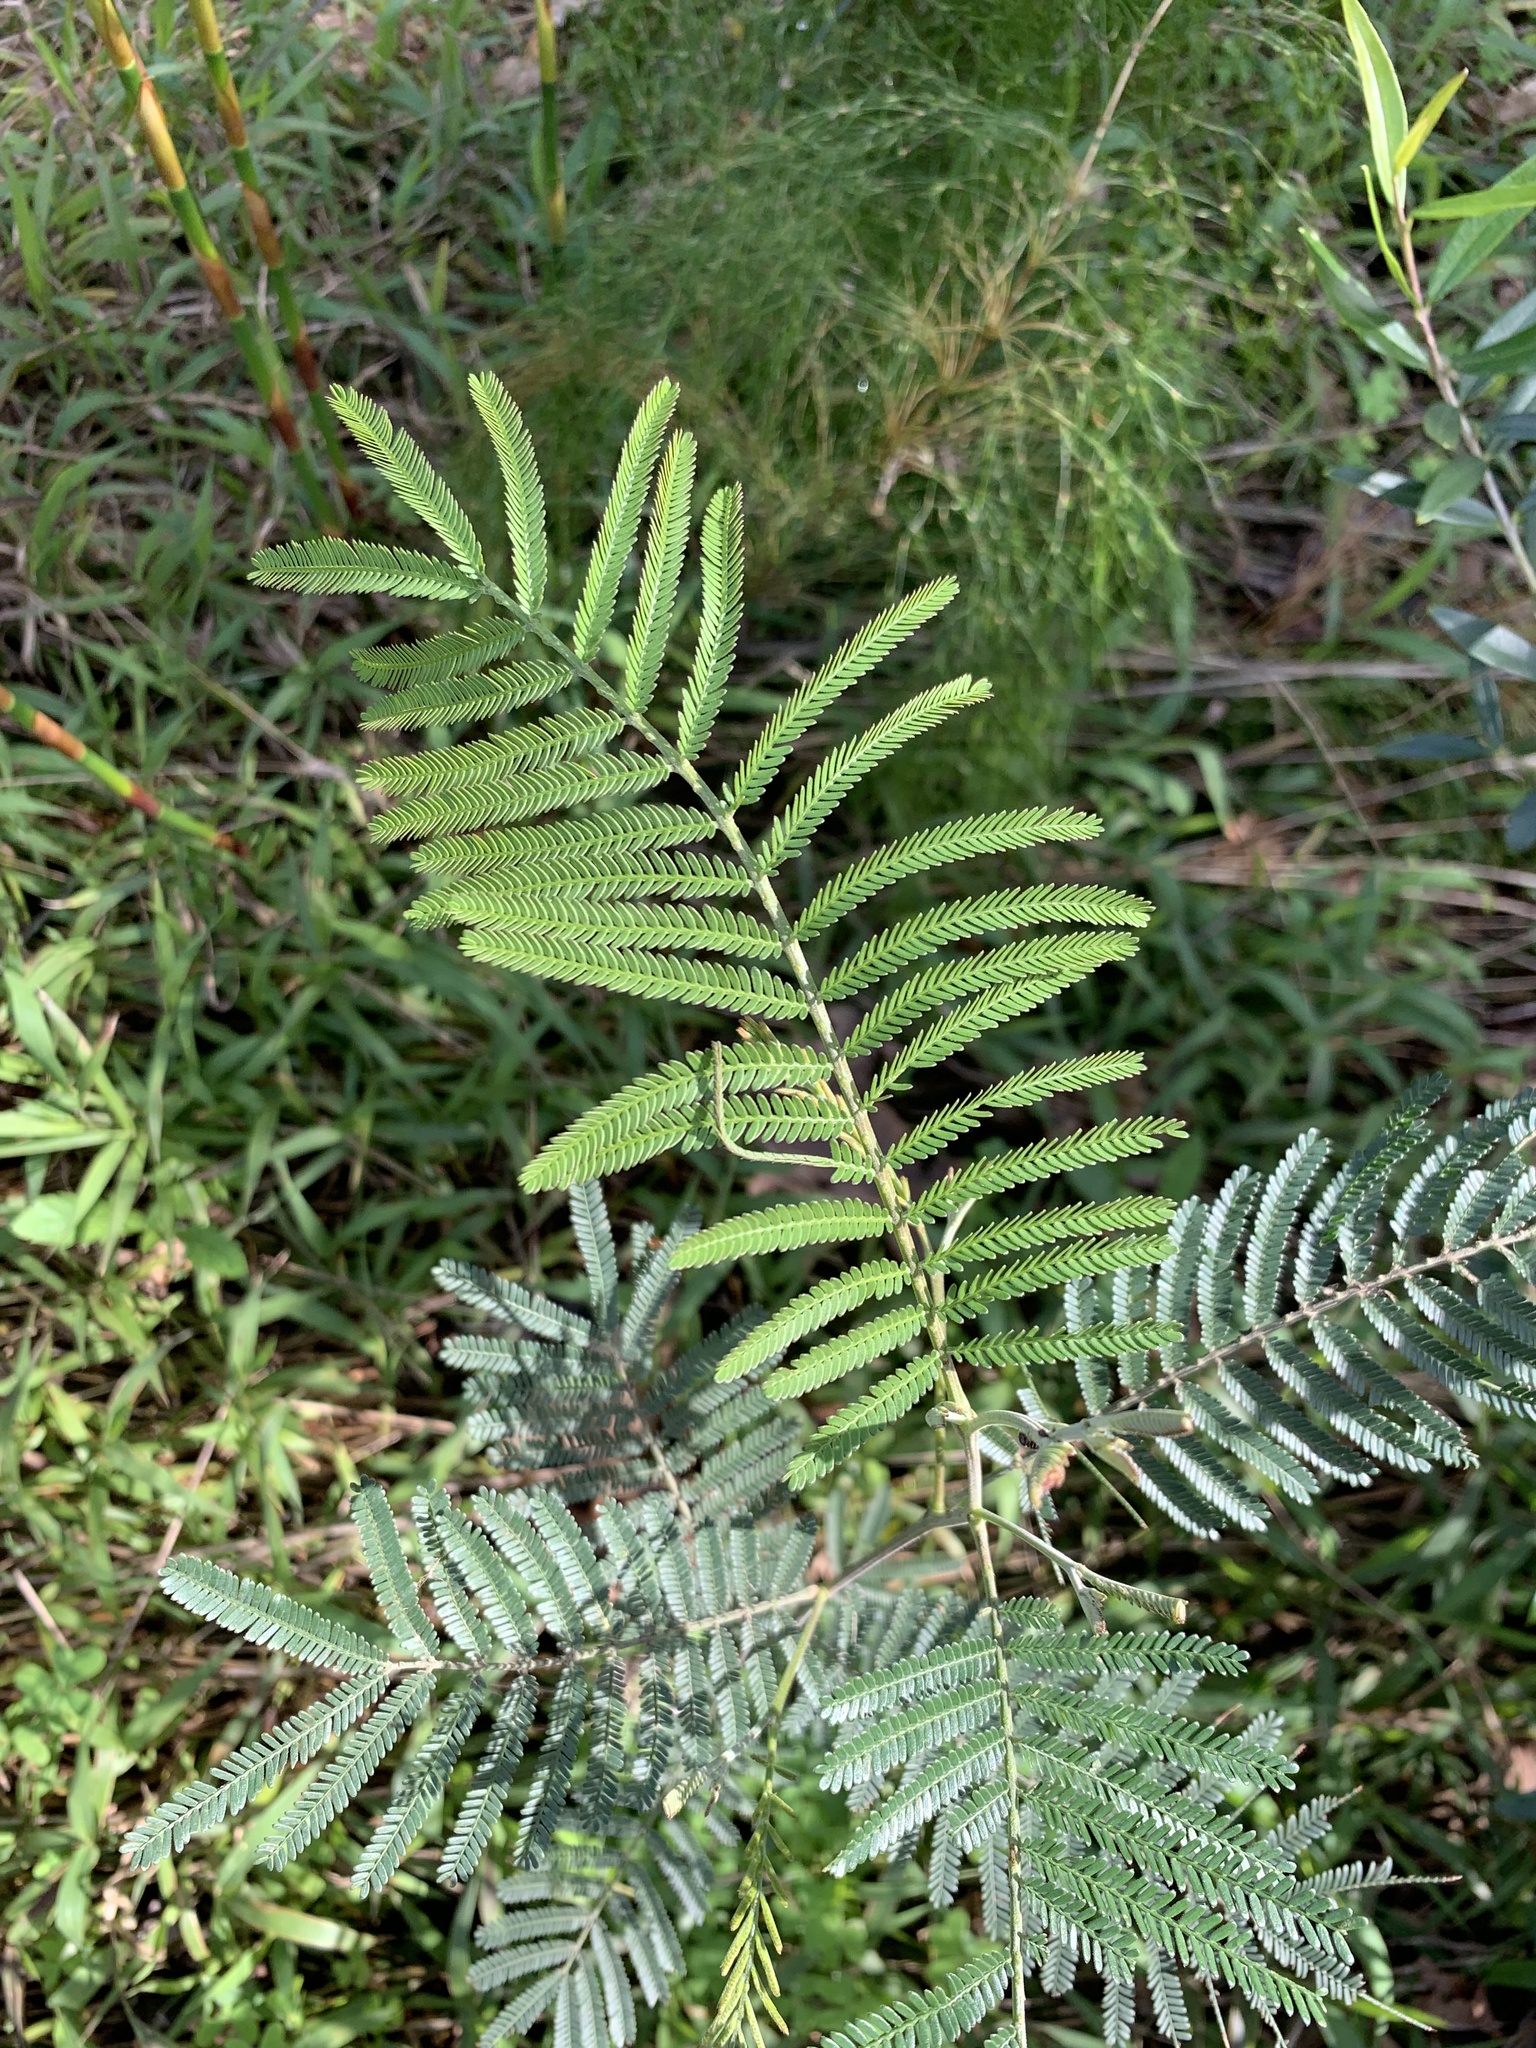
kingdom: Plantae
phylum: Tracheophyta
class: Magnoliopsida
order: Fabales
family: Fabaceae
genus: Acacia
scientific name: Acacia mearnsii
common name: Black wattle
